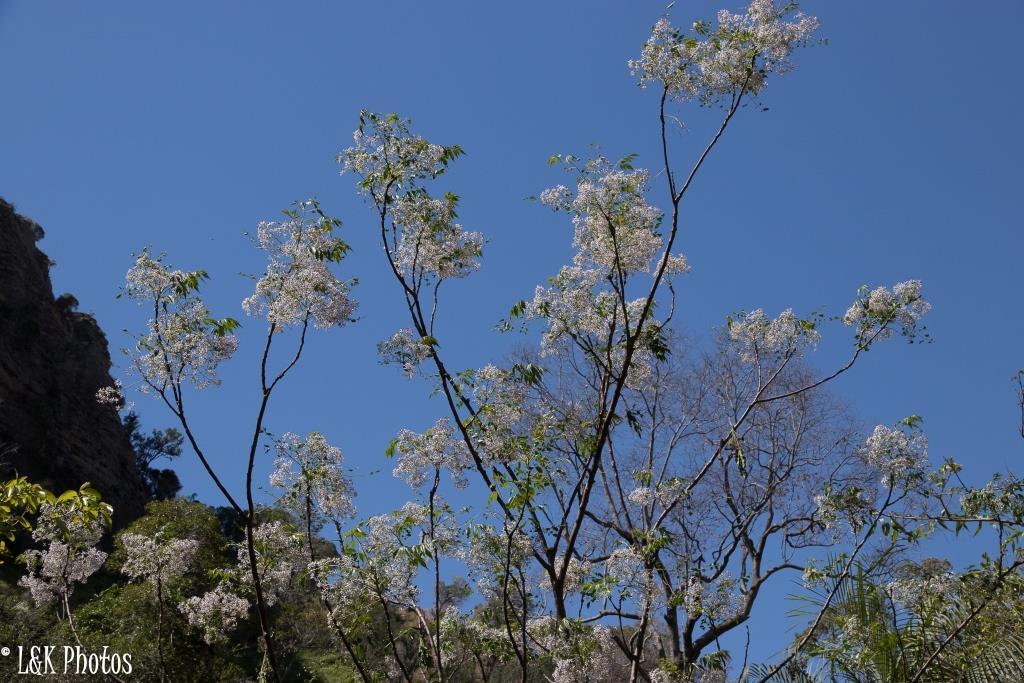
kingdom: Plantae
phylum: Tracheophyta
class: Magnoliopsida
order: Sapindales
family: Meliaceae
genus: Melia
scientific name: Melia azedarach
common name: Chinaberrytree
